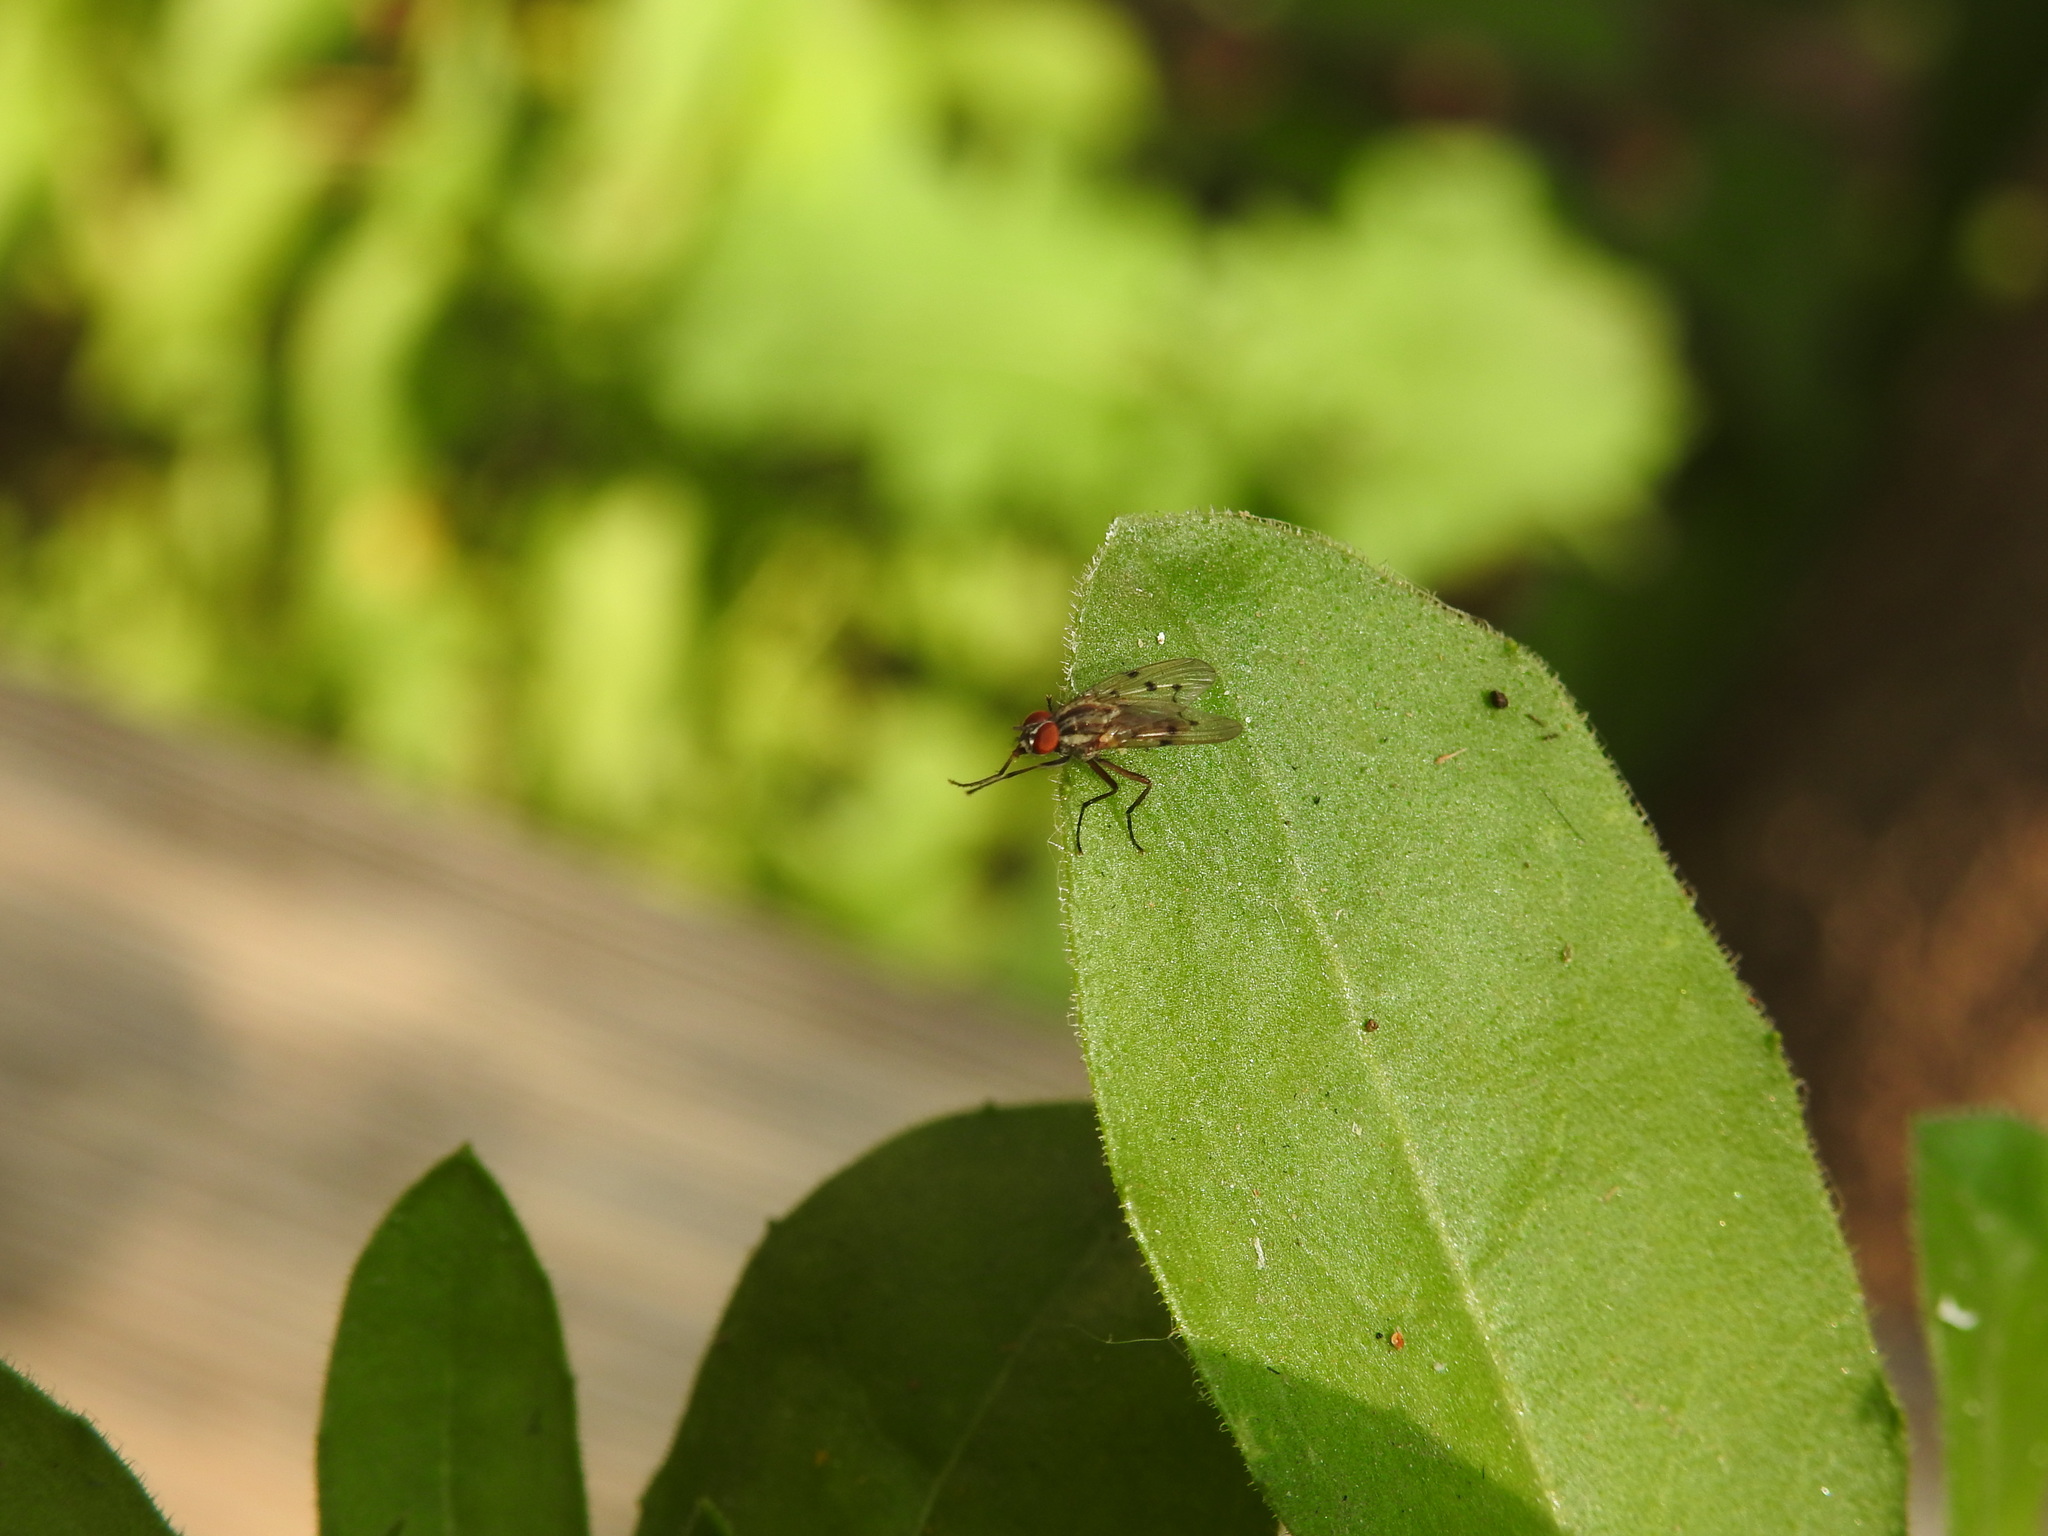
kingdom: Animalia
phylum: Arthropoda
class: Insecta
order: Diptera
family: Anthomyiidae
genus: Anthomyia
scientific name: Anthomyia punctipennis
